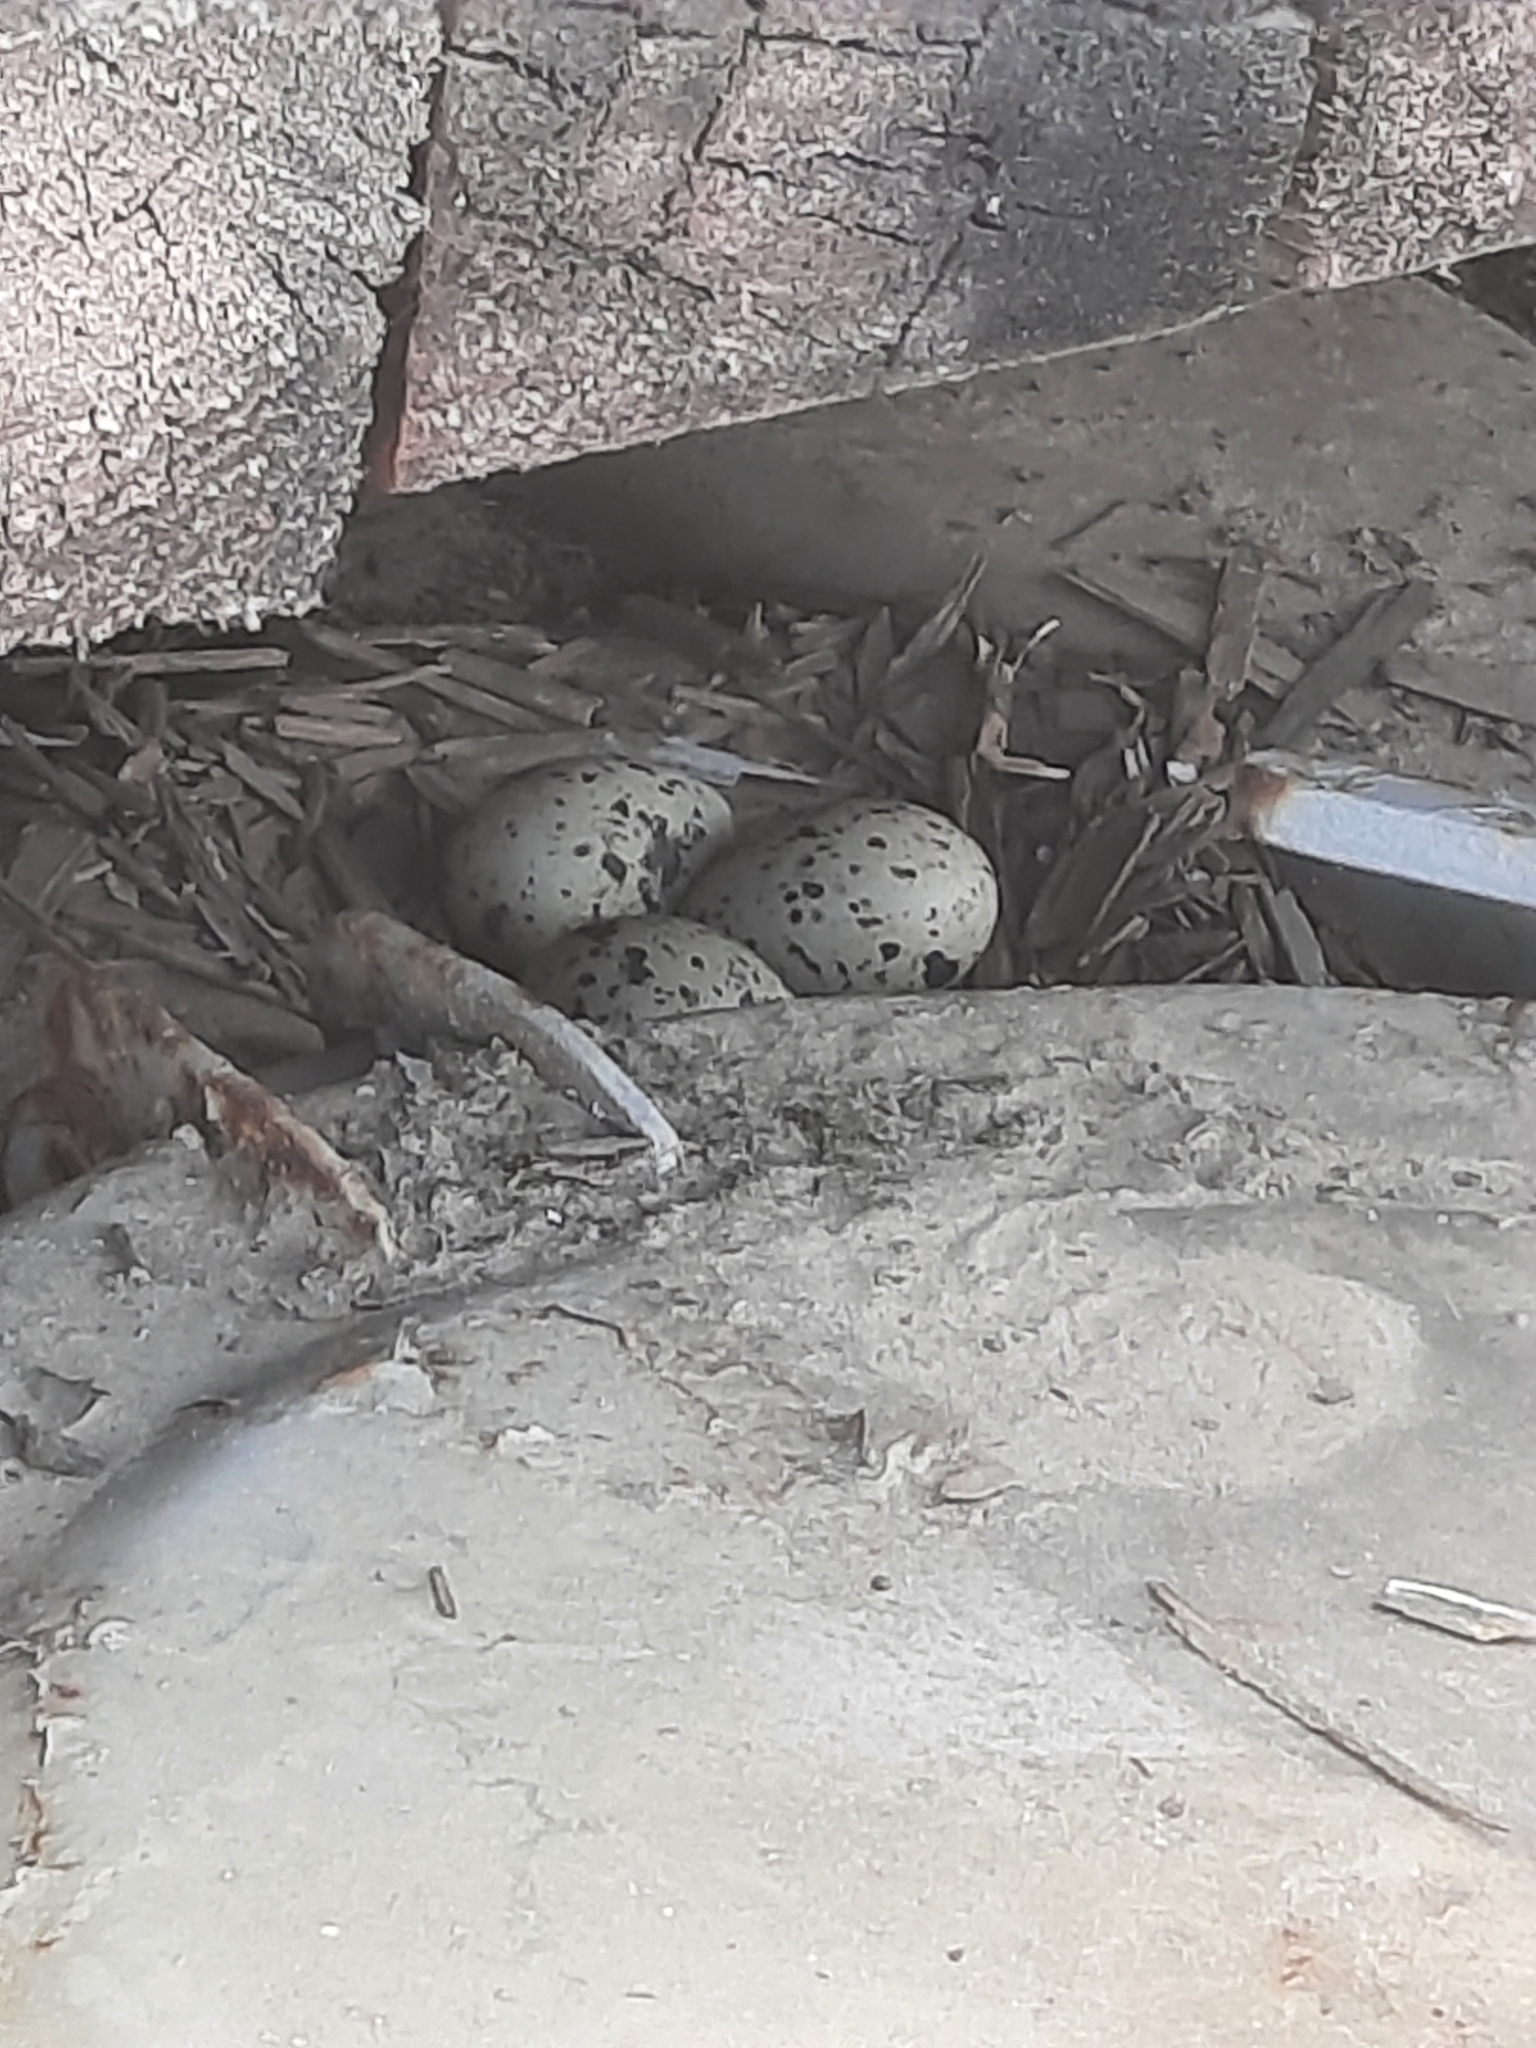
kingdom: Animalia
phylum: Chordata
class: Aves
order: Charadriiformes
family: Haematopodidae
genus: Haematopus
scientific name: Haematopus ostralegus
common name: Eurasian oystercatcher
